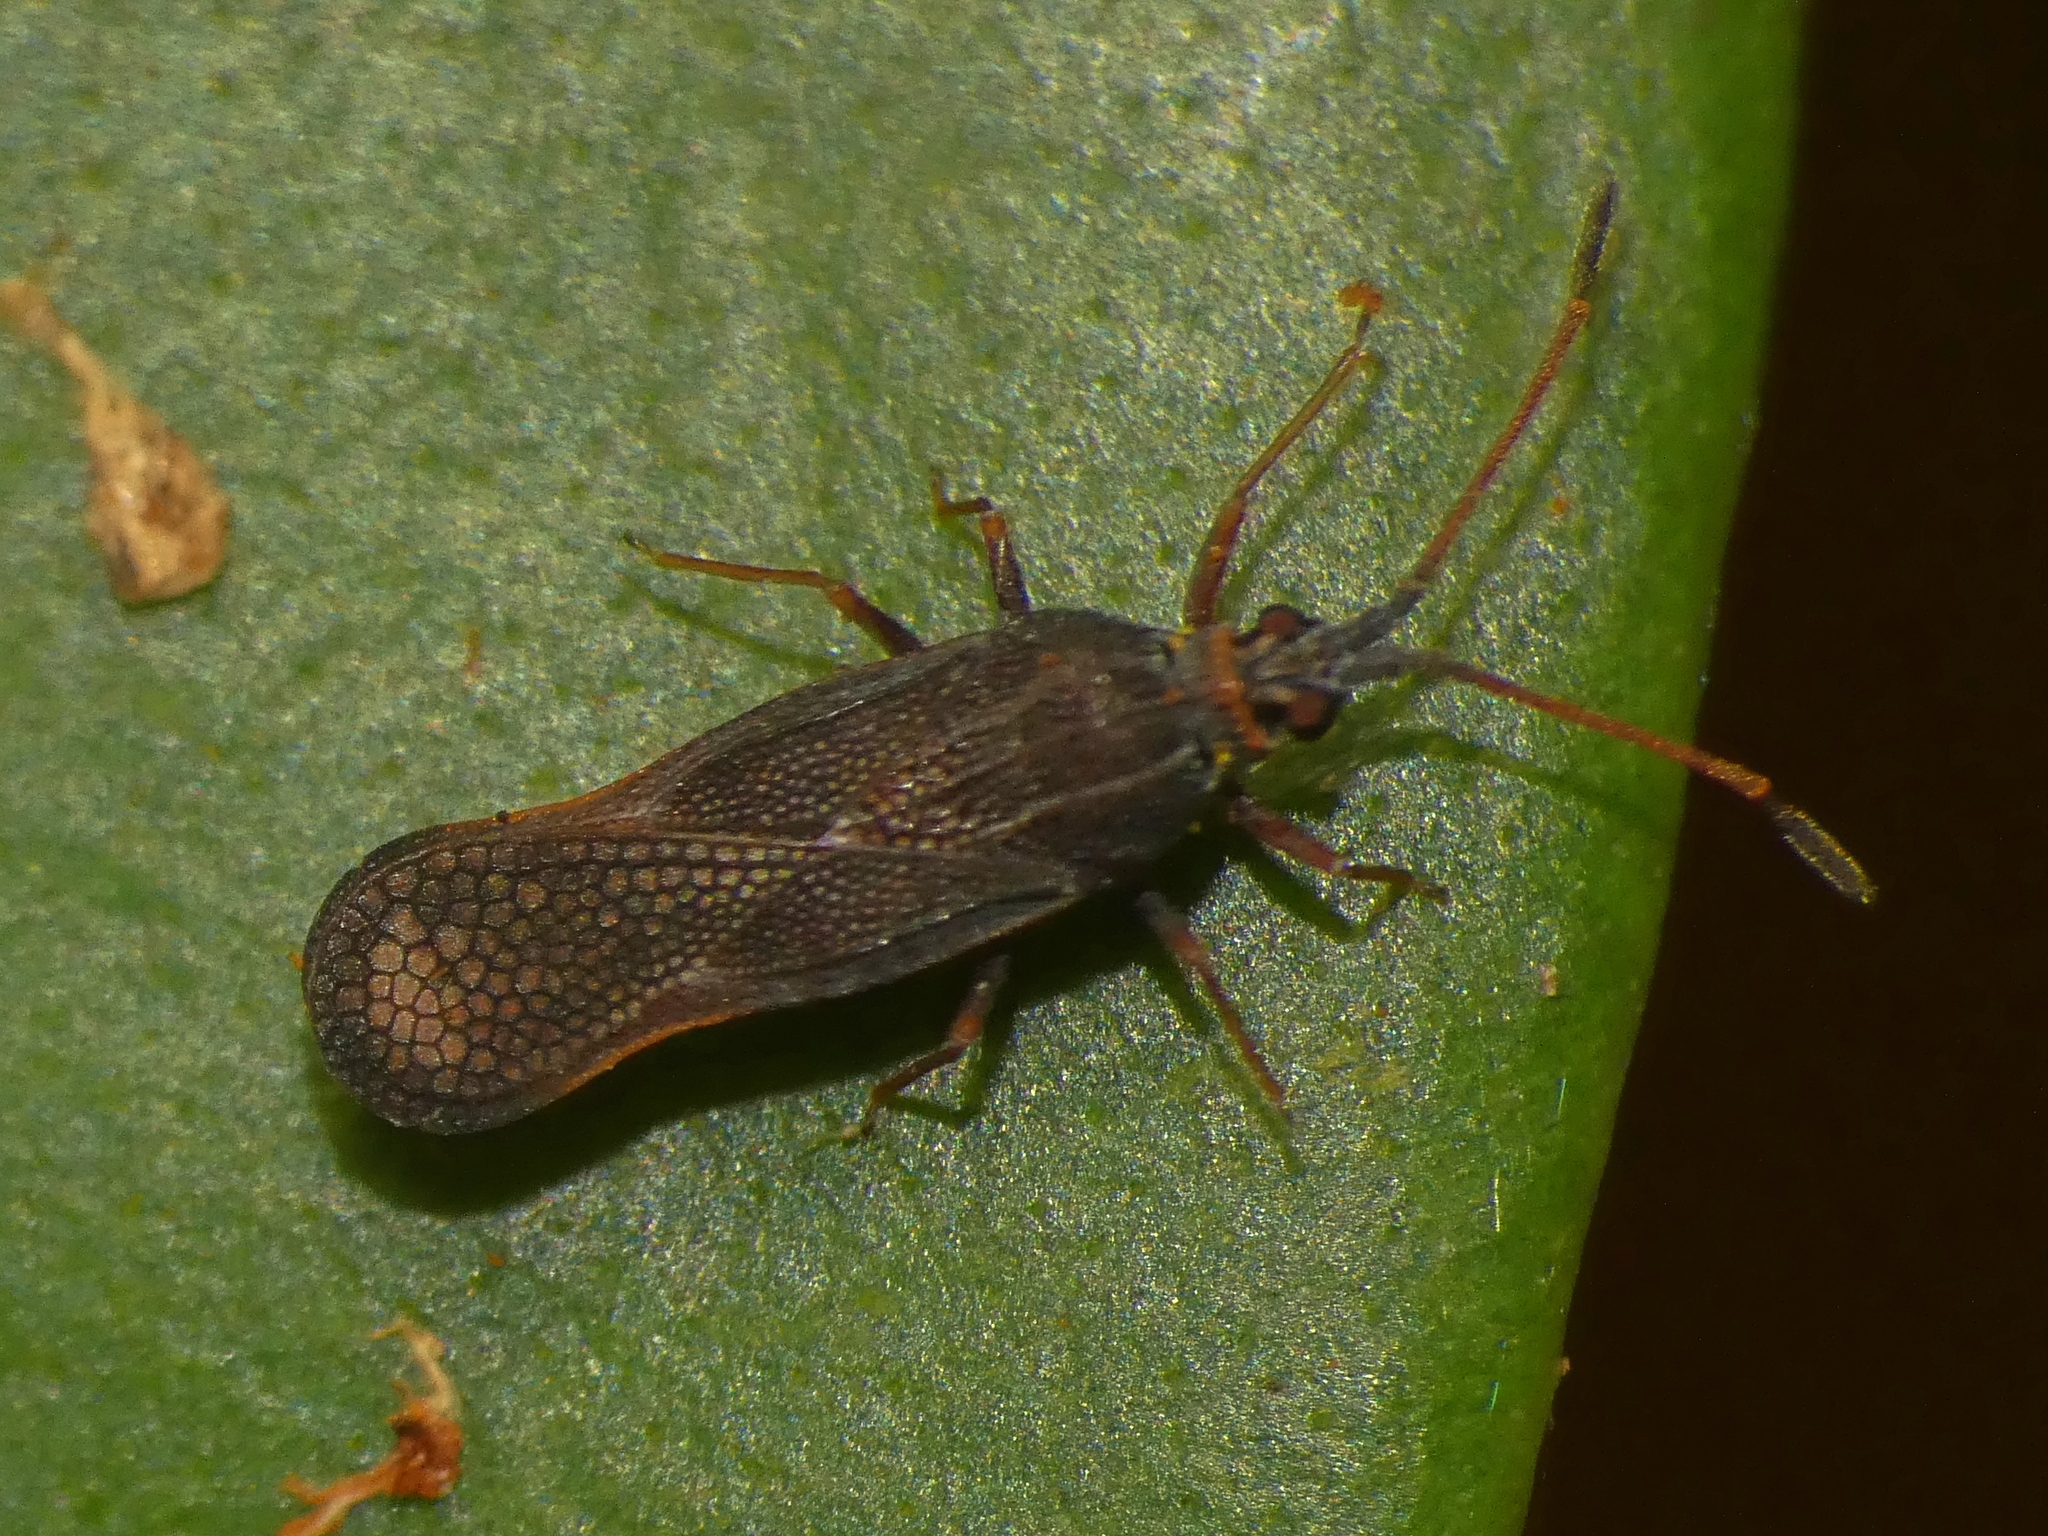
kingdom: Animalia
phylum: Arthropoda
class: Insecta
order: Hemiptera
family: Tingidae
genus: Perissonemia
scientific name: Perissonemia sodalis
